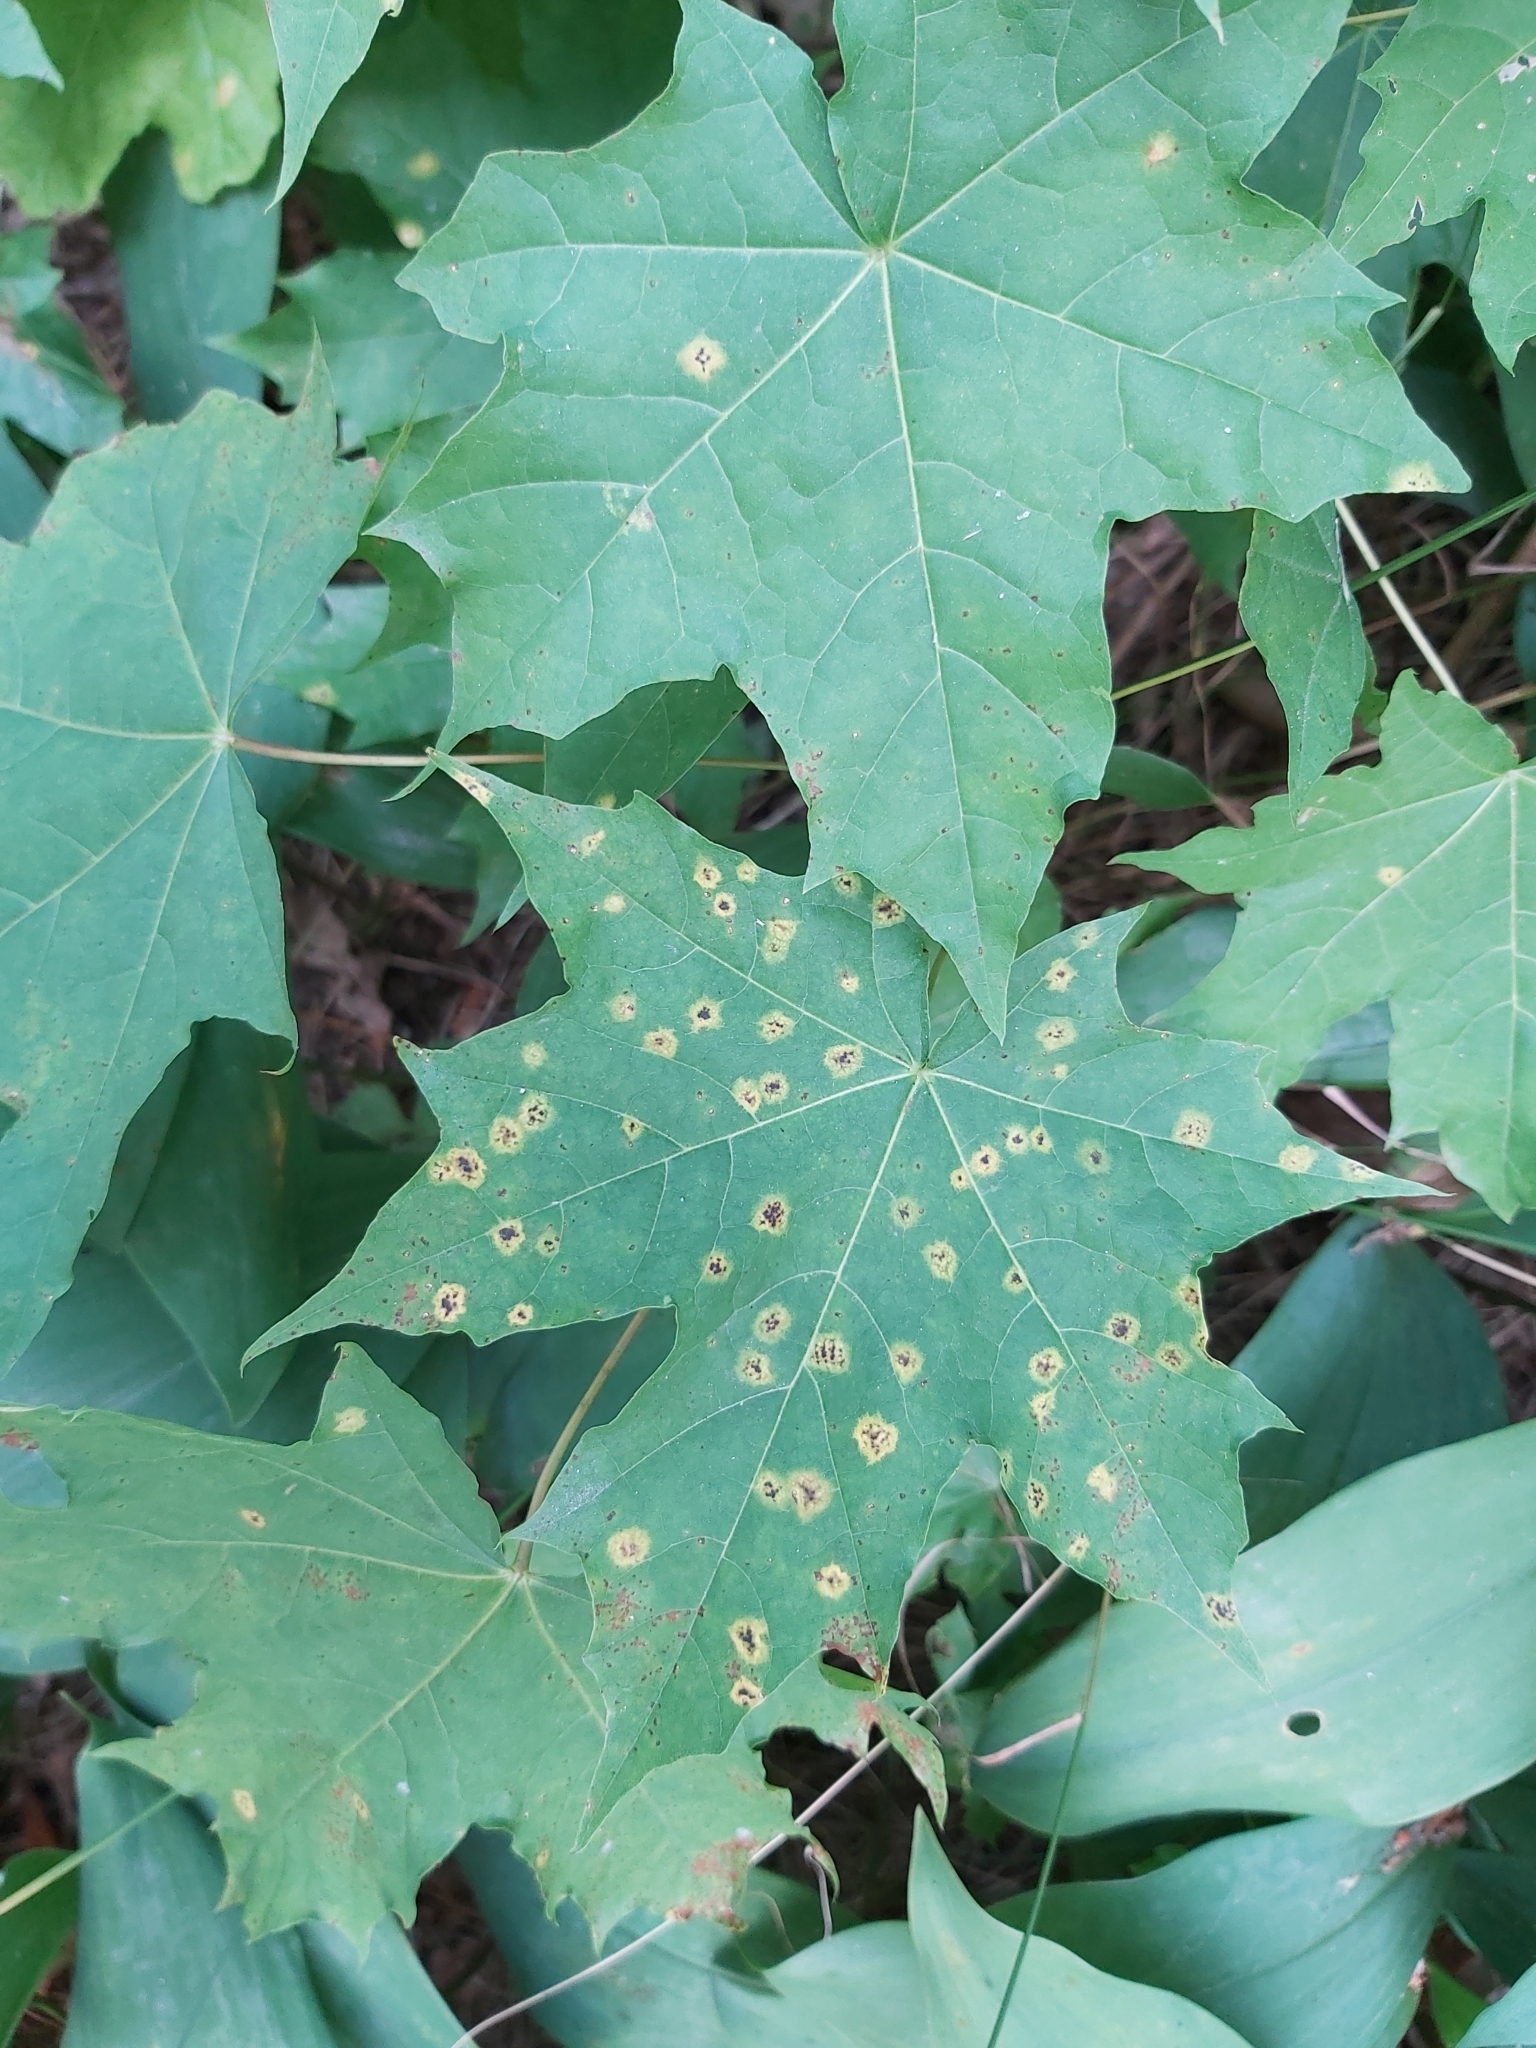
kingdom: Fungi
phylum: Ascomycota
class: Leotiomycetes
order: Rhytismatales
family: Rhytismataceae
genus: Rhytisma
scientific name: Rhytisma acerinum
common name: European tar spot
